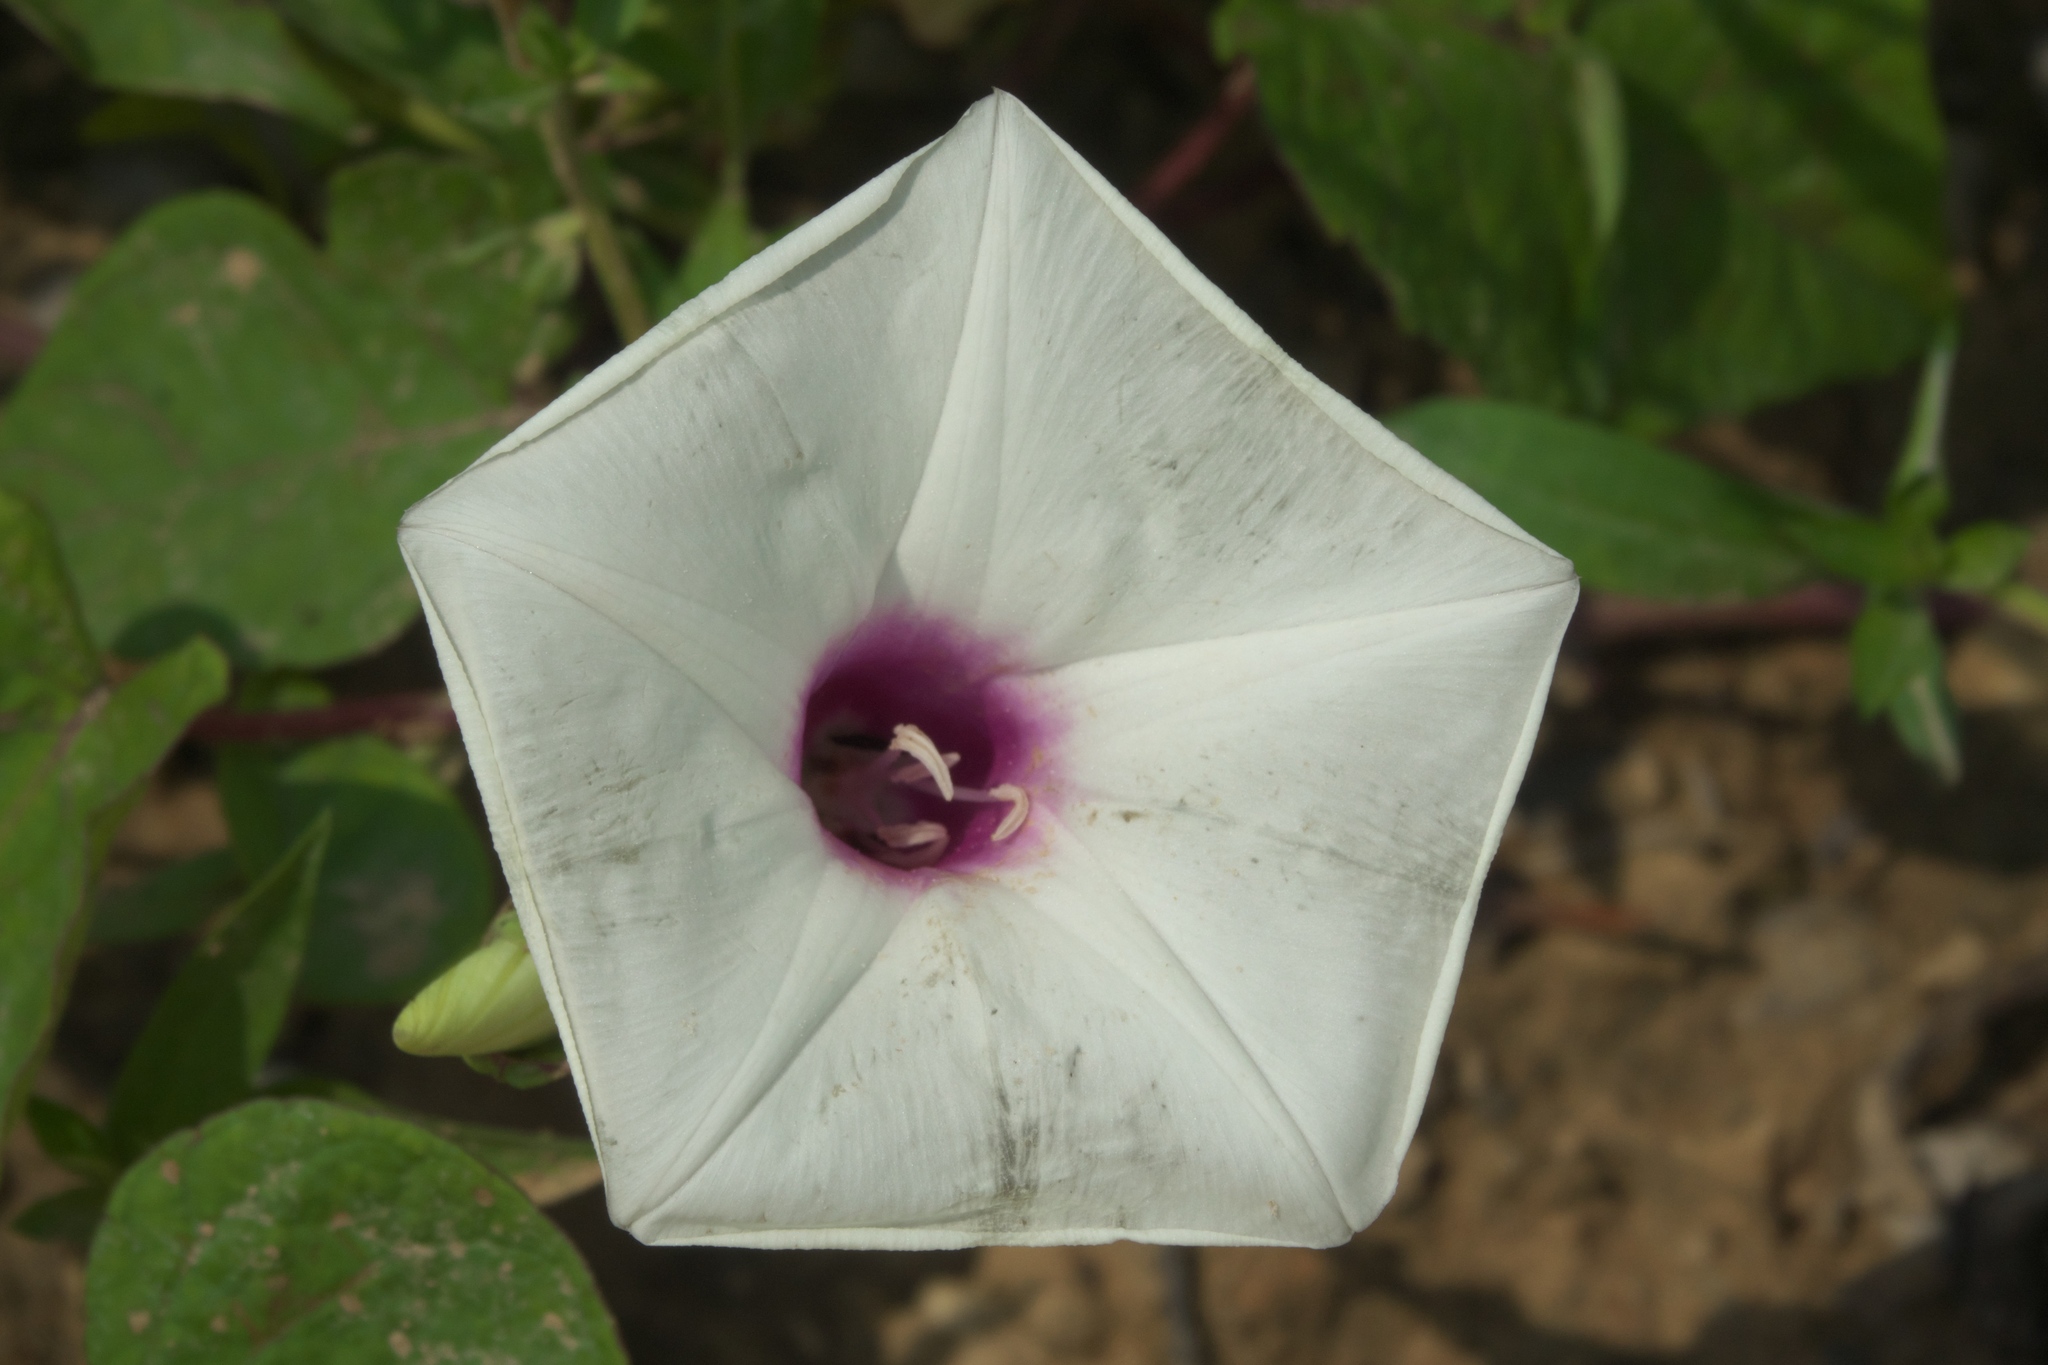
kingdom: Plantae
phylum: Tracheophyta
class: Magnoliopsida
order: Solanales
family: Convolvulaceae
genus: Ipomoea
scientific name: Ipomoea pandurata
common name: Man-of-the-earth
